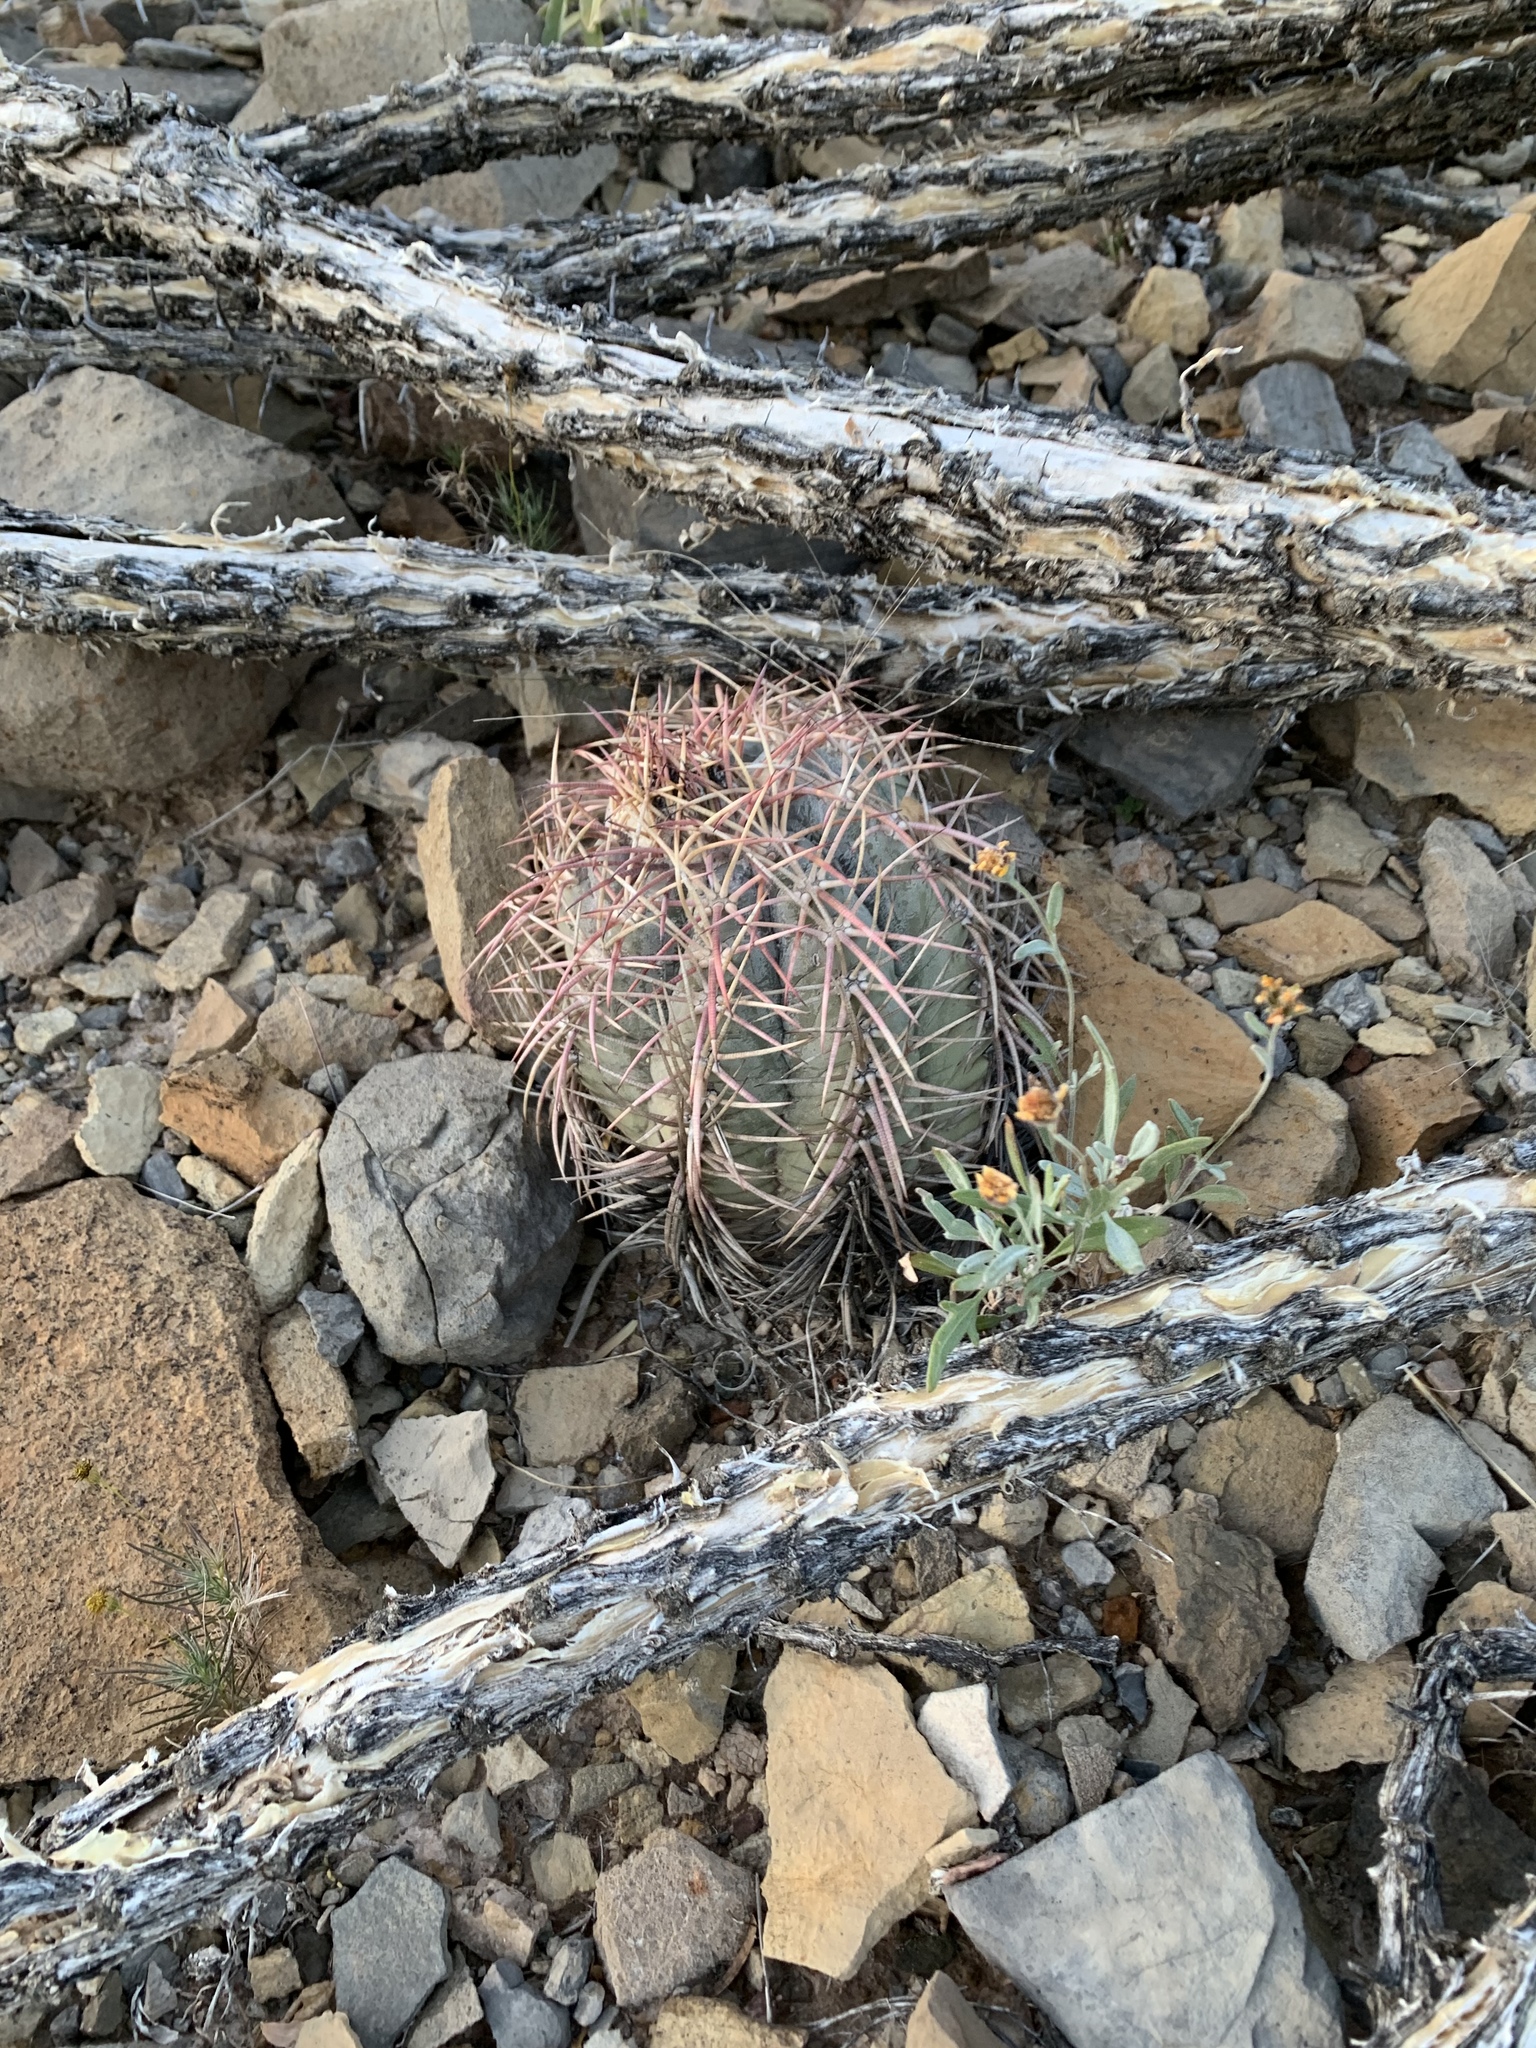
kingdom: Plantae
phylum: Tracheophyta
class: Magnoliopsida
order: Caryophyllales
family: Cactaceae
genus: Echinocactus
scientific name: Echinocactus horizonthalonius
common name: Devilshead
